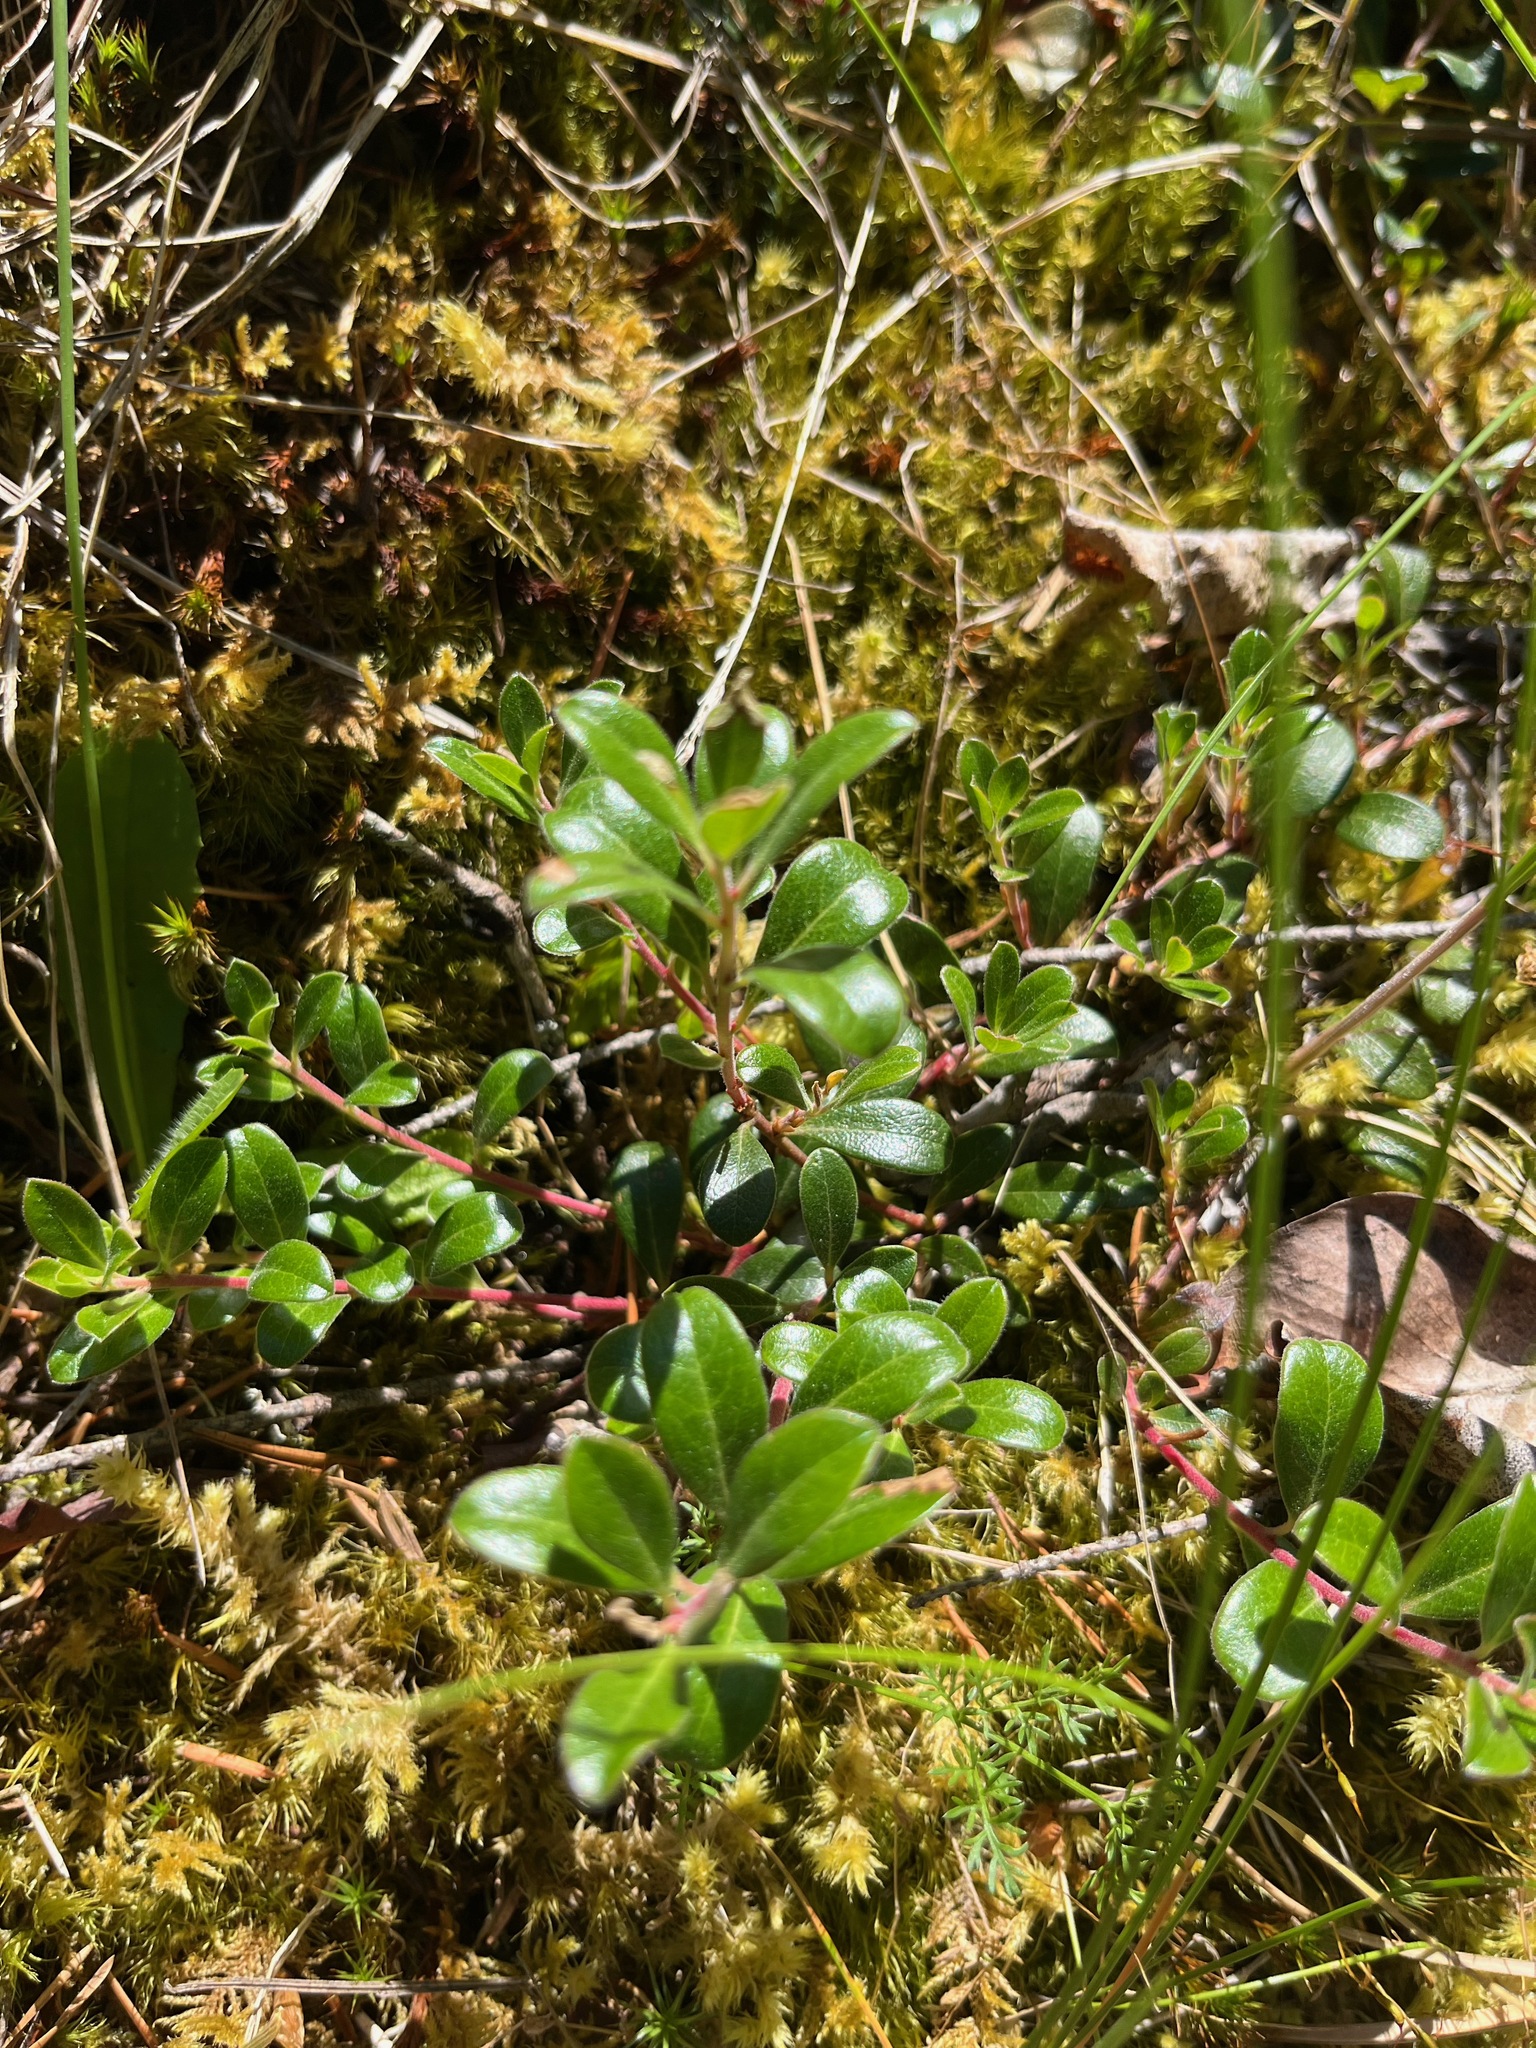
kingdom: Plantae
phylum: Tracheophyta
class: Magnoliopsida
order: Ericales
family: Ericaceae
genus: Arctostaphylos
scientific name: Arctostaphylos uva-ursi
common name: Bearberry
